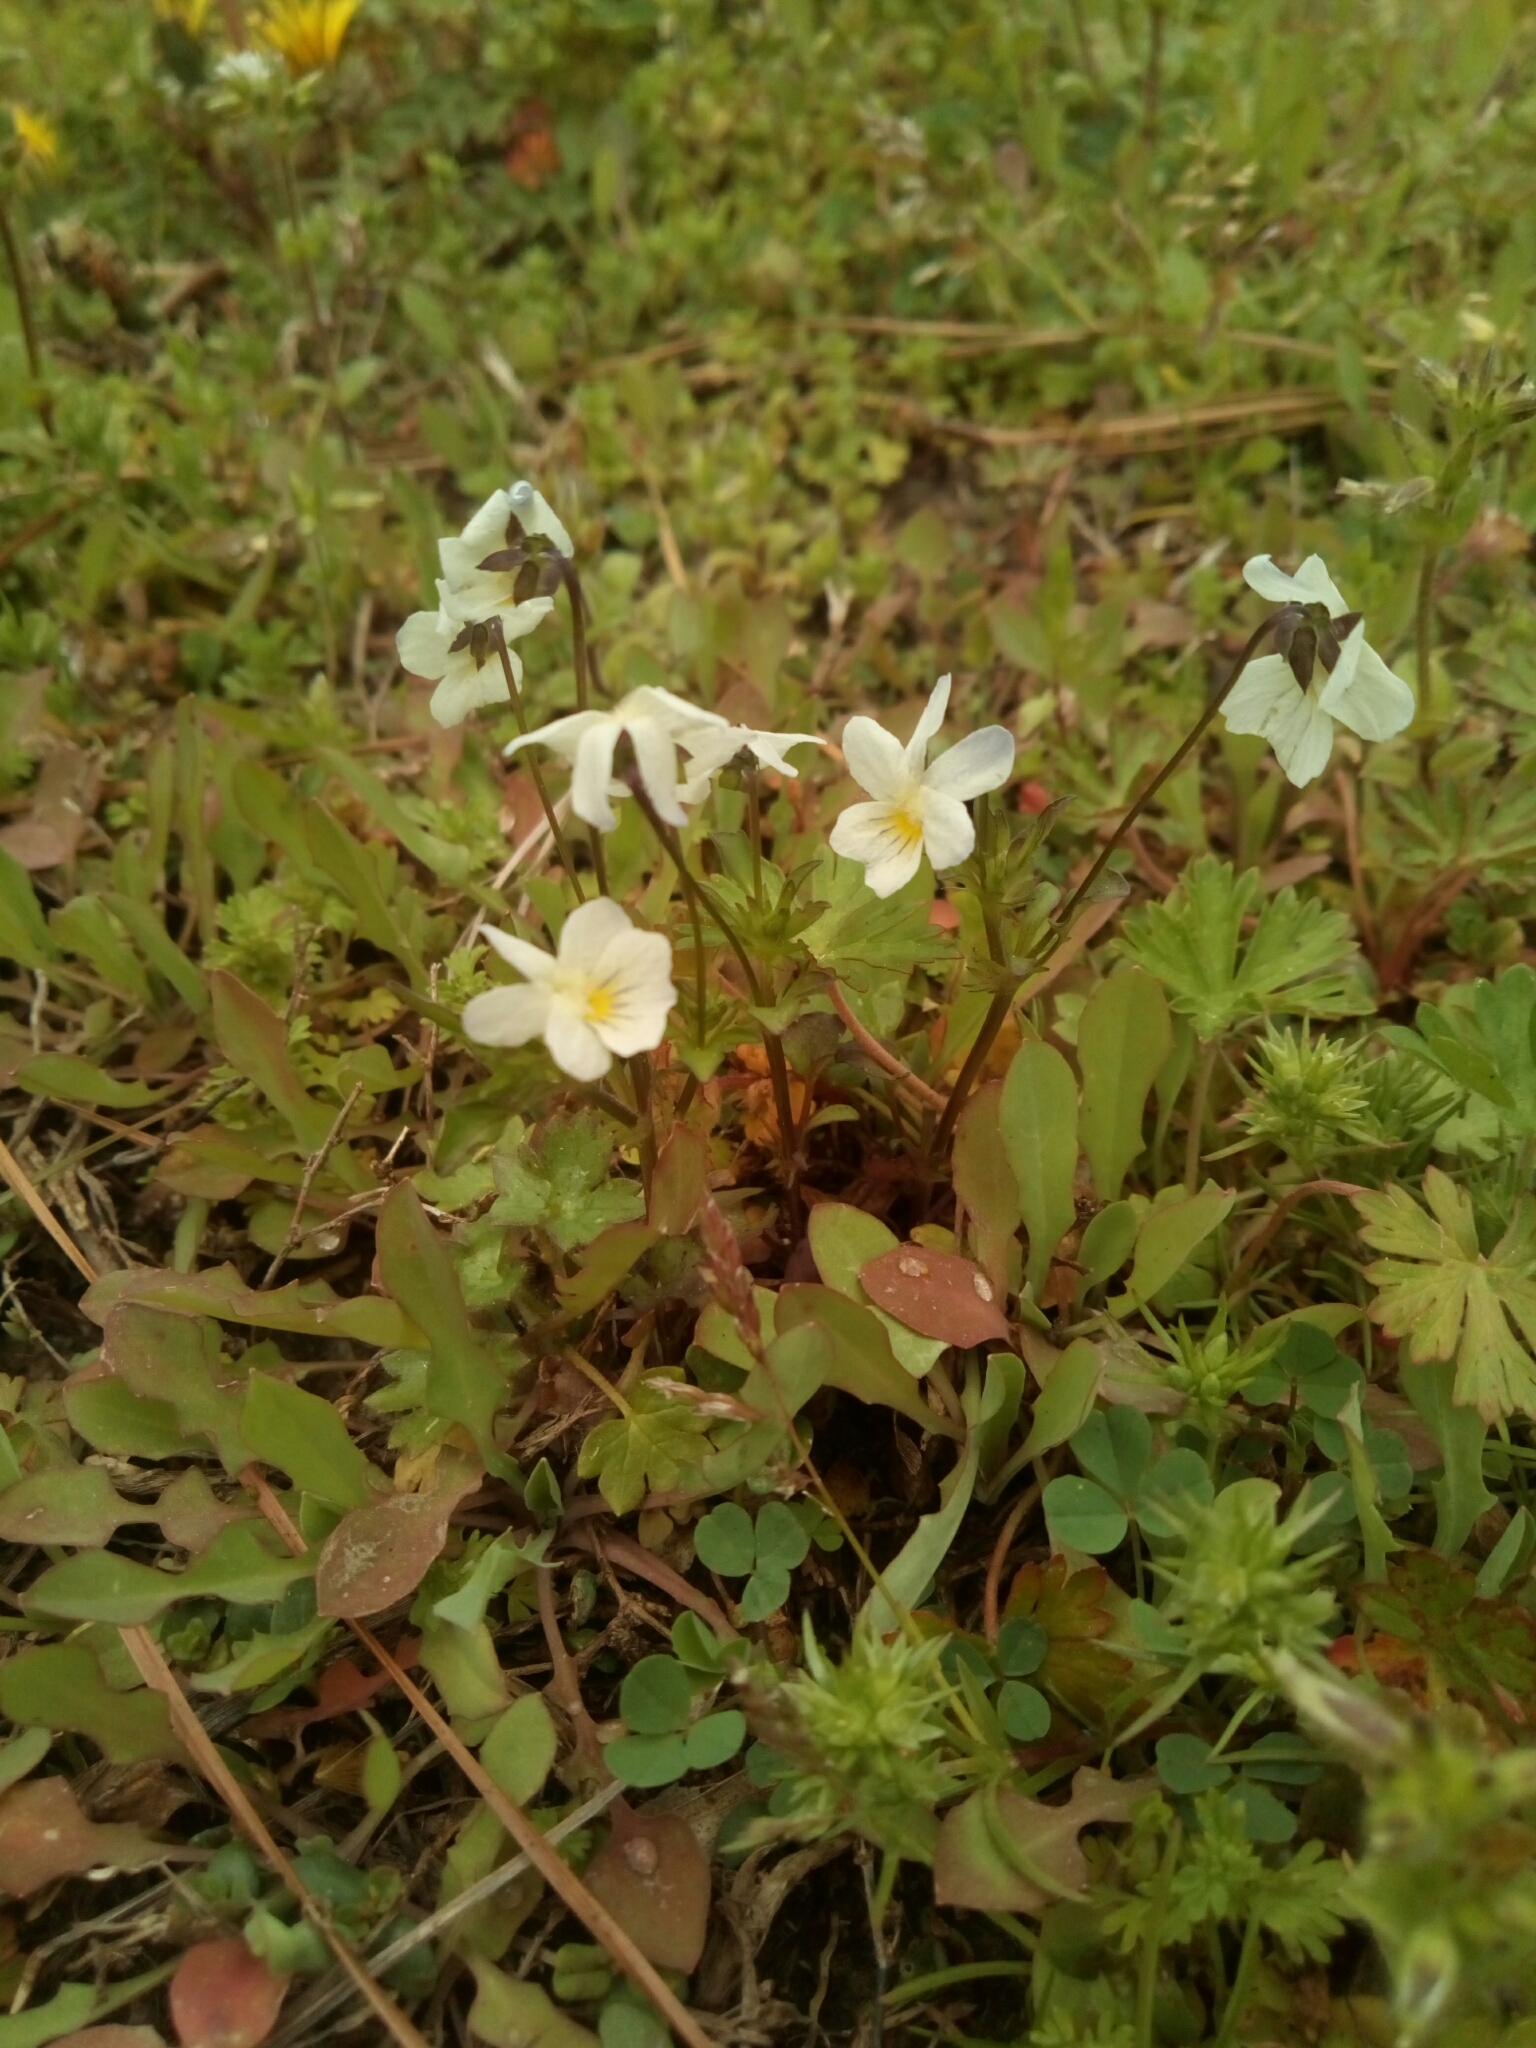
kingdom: Plantae
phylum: Tracheophyta
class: Magnoliopsida
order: Malpighiales
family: Violaceae
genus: Viola
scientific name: Viola rafinesquei
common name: American field pansy
